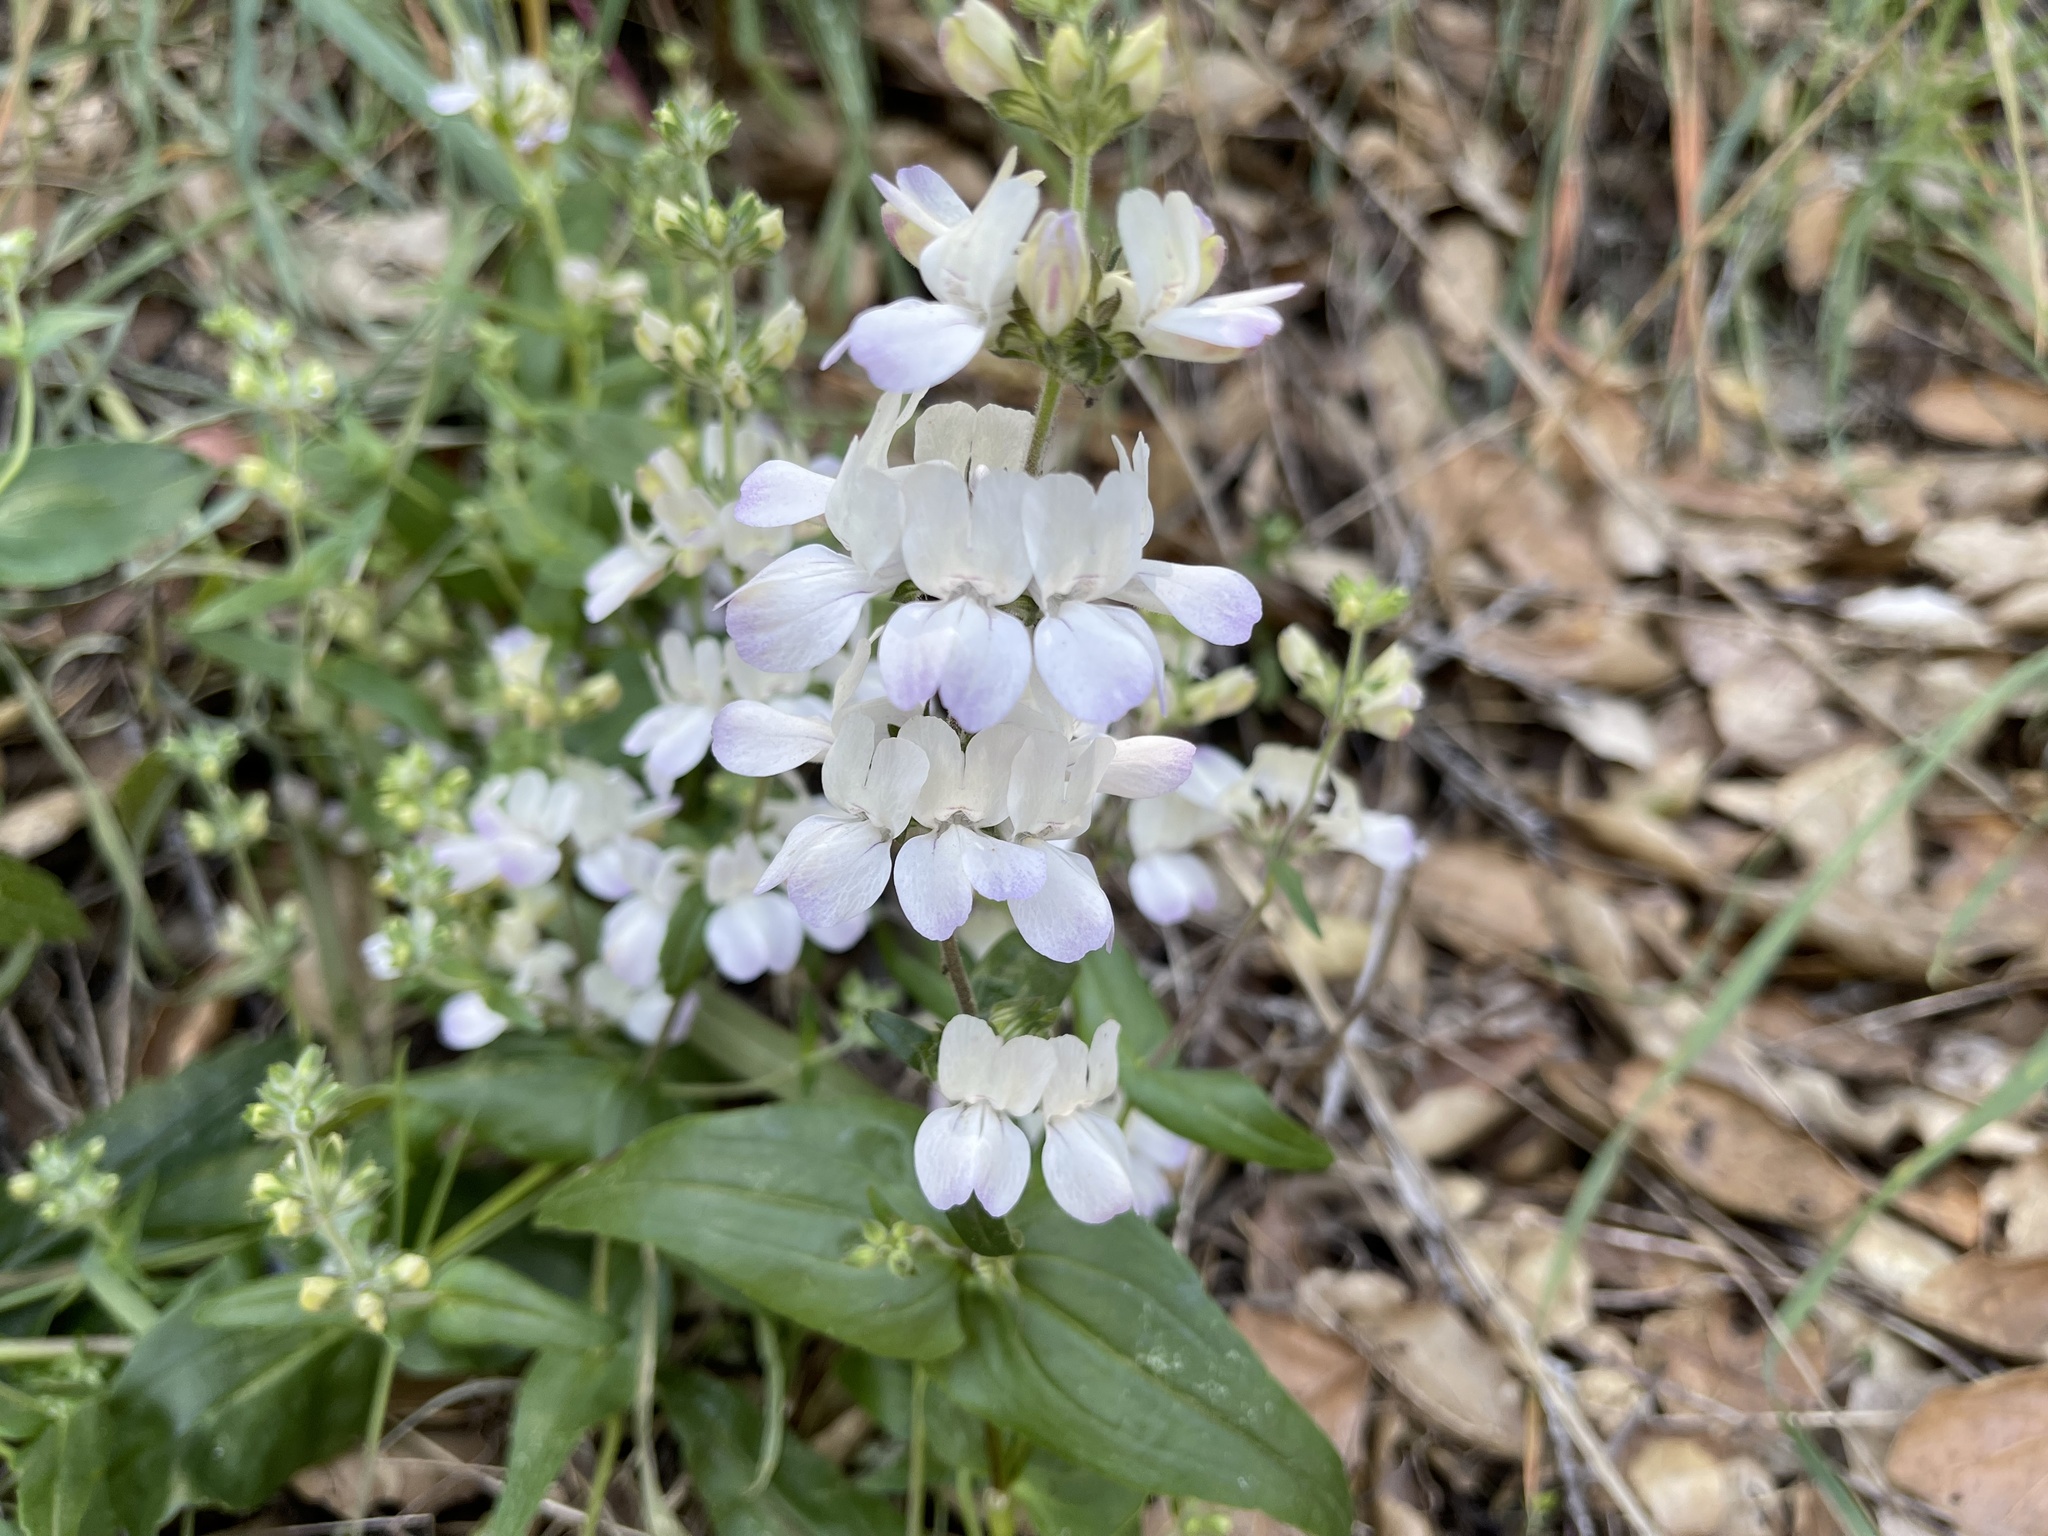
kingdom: Plantae
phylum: Tracheophyta
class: Magnoliopsida
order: Lamiales
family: Plantaginaceae
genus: Collinsia
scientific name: Collinsia heterophylla
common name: Chinese-houses
